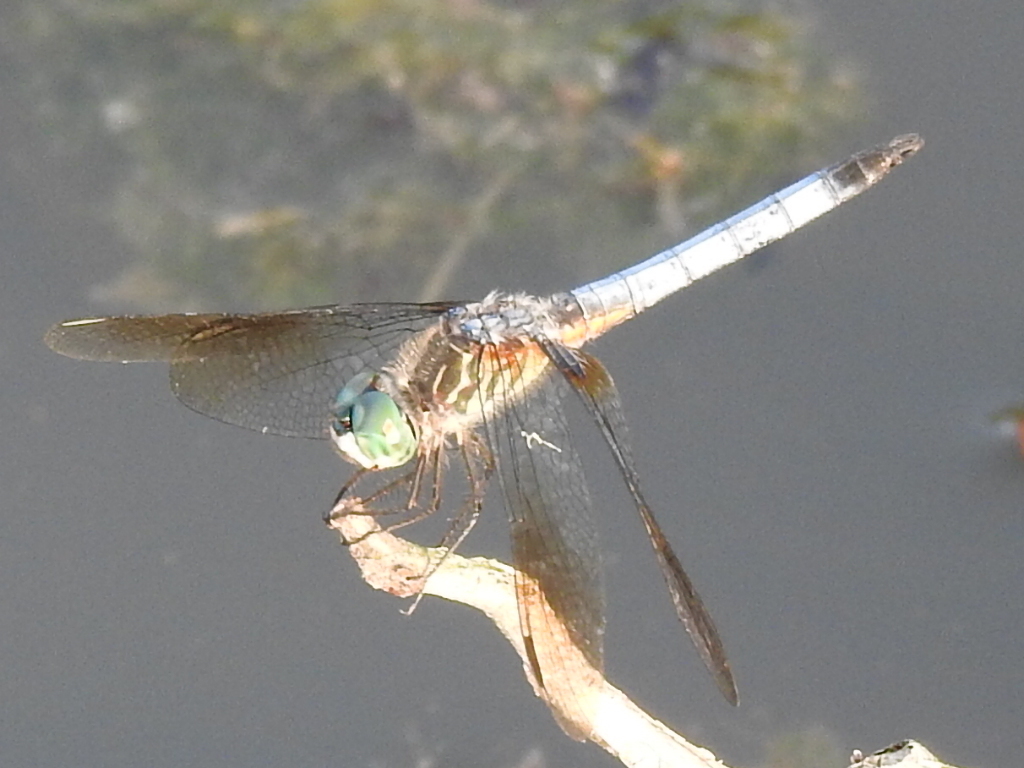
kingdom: Animalia
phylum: Arthropoda
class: Insecta
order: Odonata
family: Libellulidae
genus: Pachydiplax
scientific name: Pachydiplax longipennis
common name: Blue dasher
